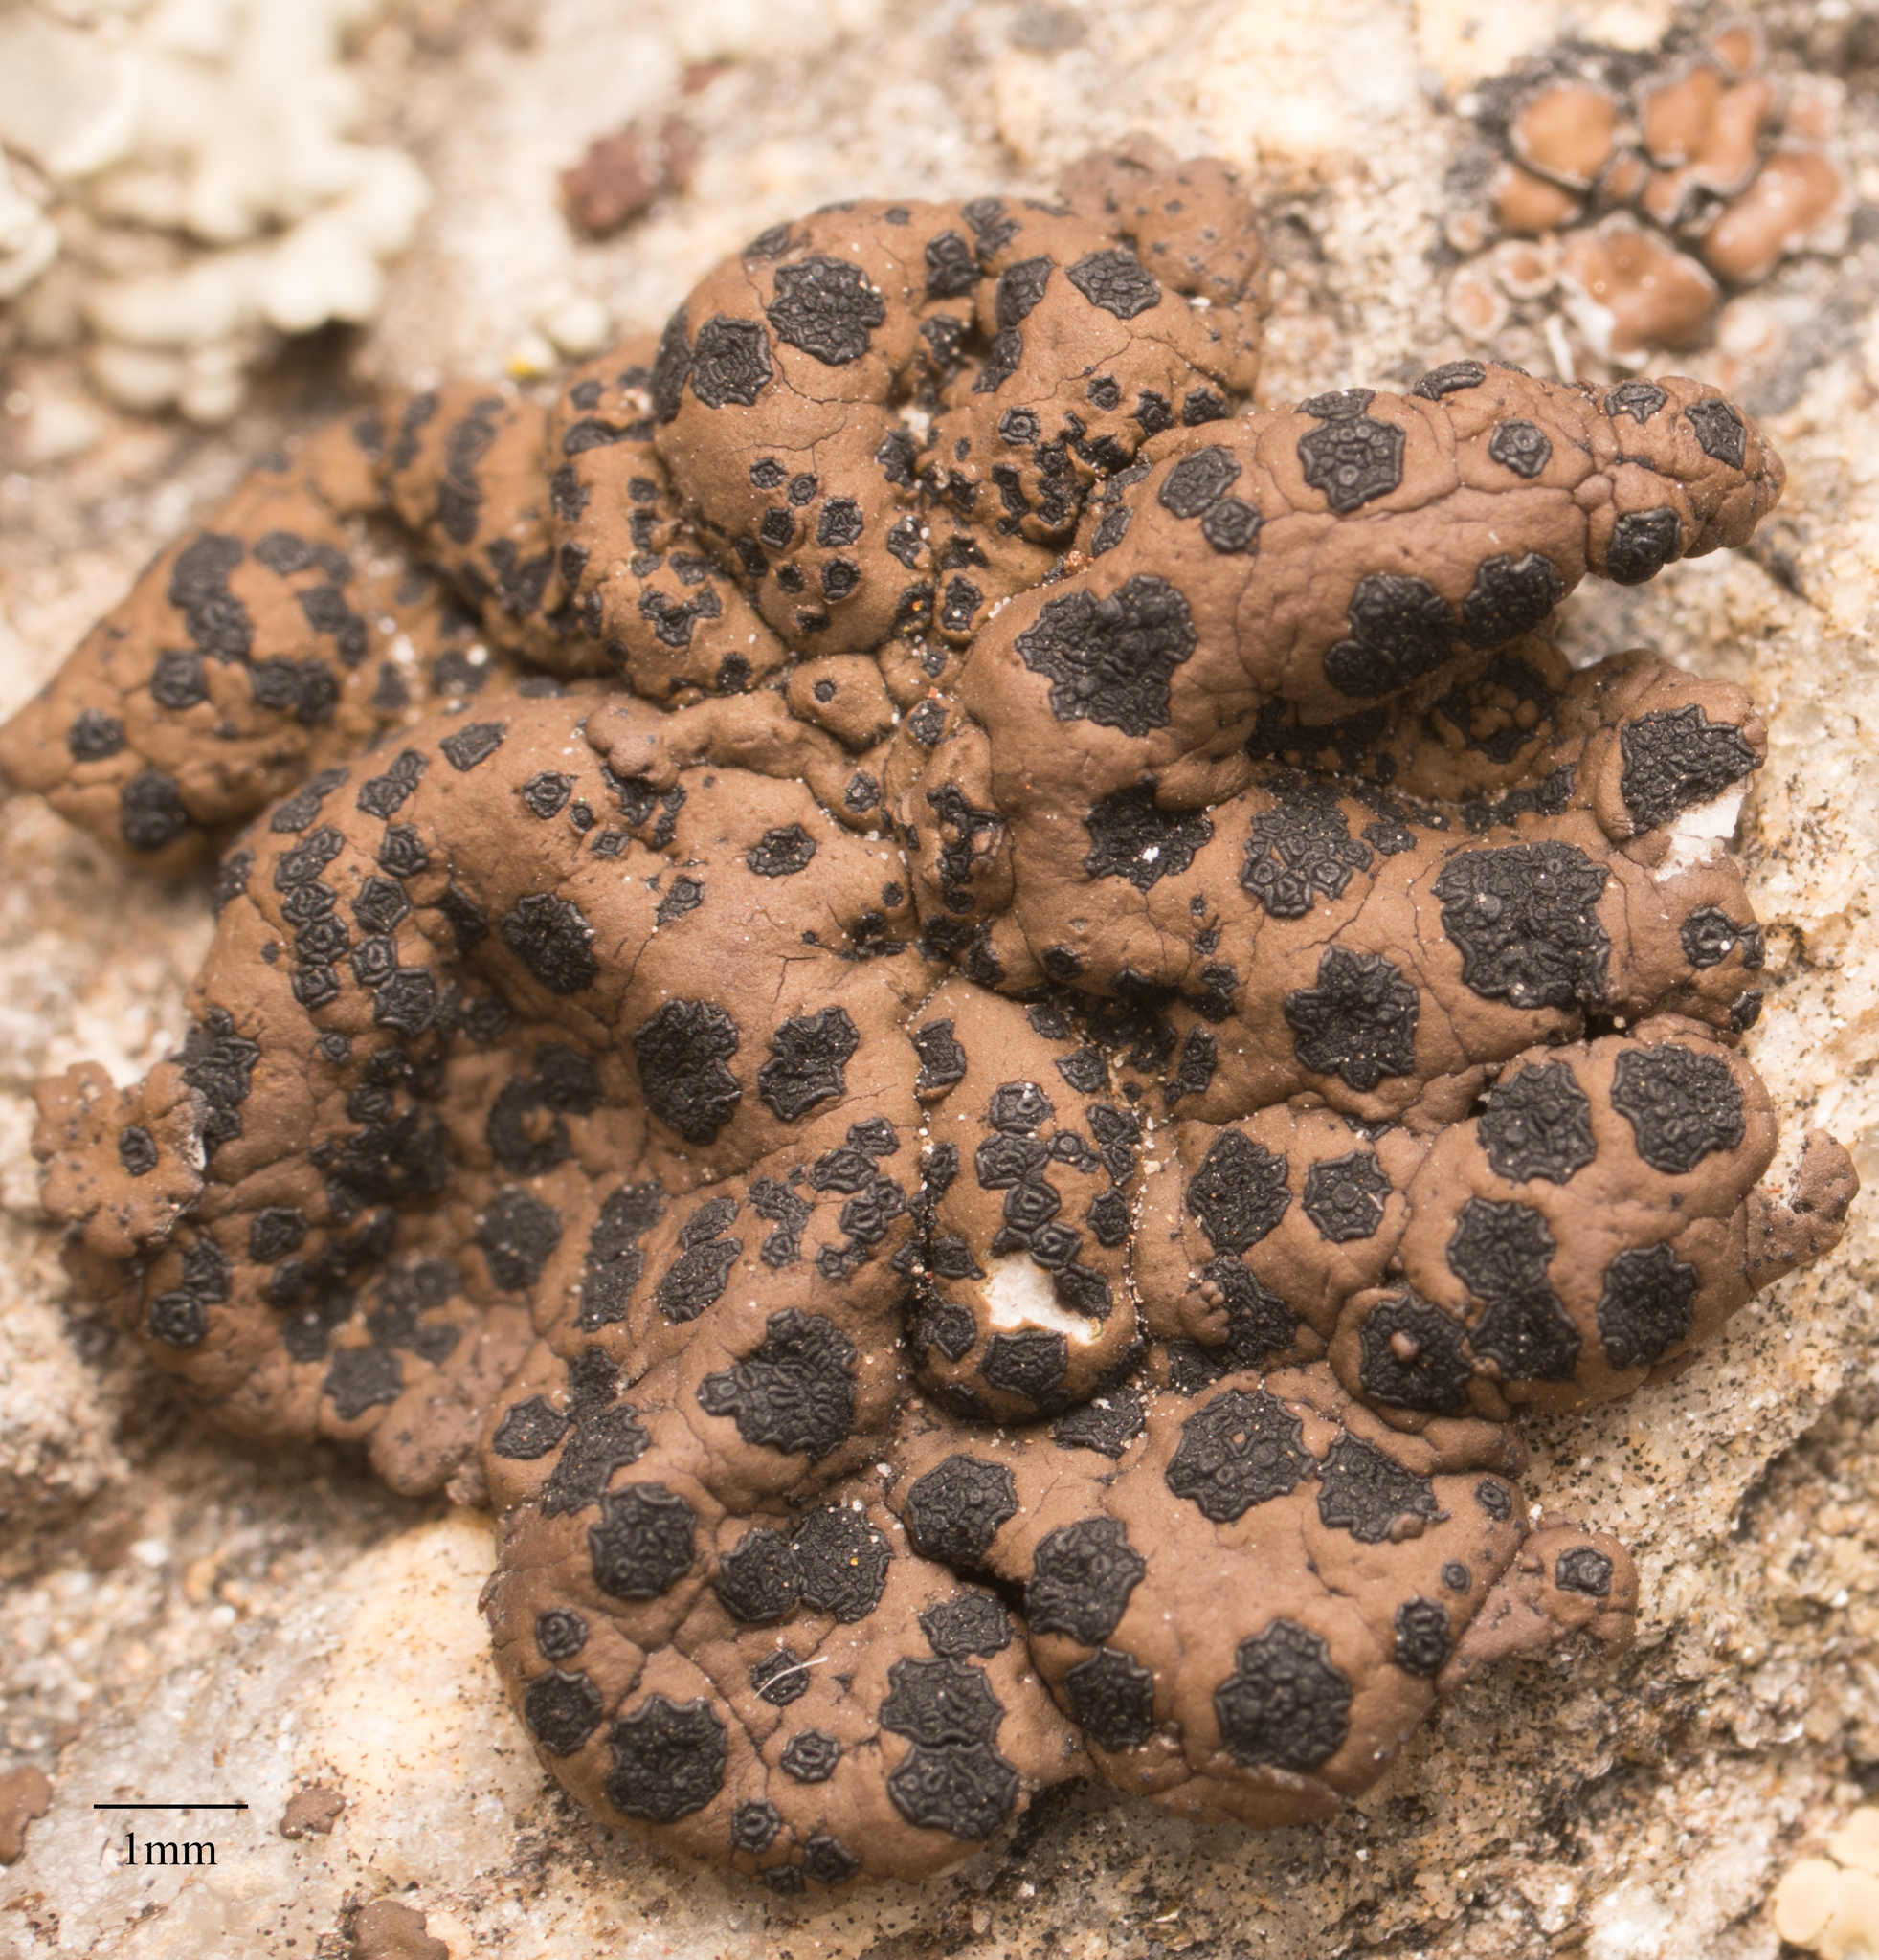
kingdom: Fungi
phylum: Ascomycota
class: Lecanoromycetes
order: Umbilicariales
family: Umbilicariaceae
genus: Umbilicaria
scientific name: Umbilicaria phaea
